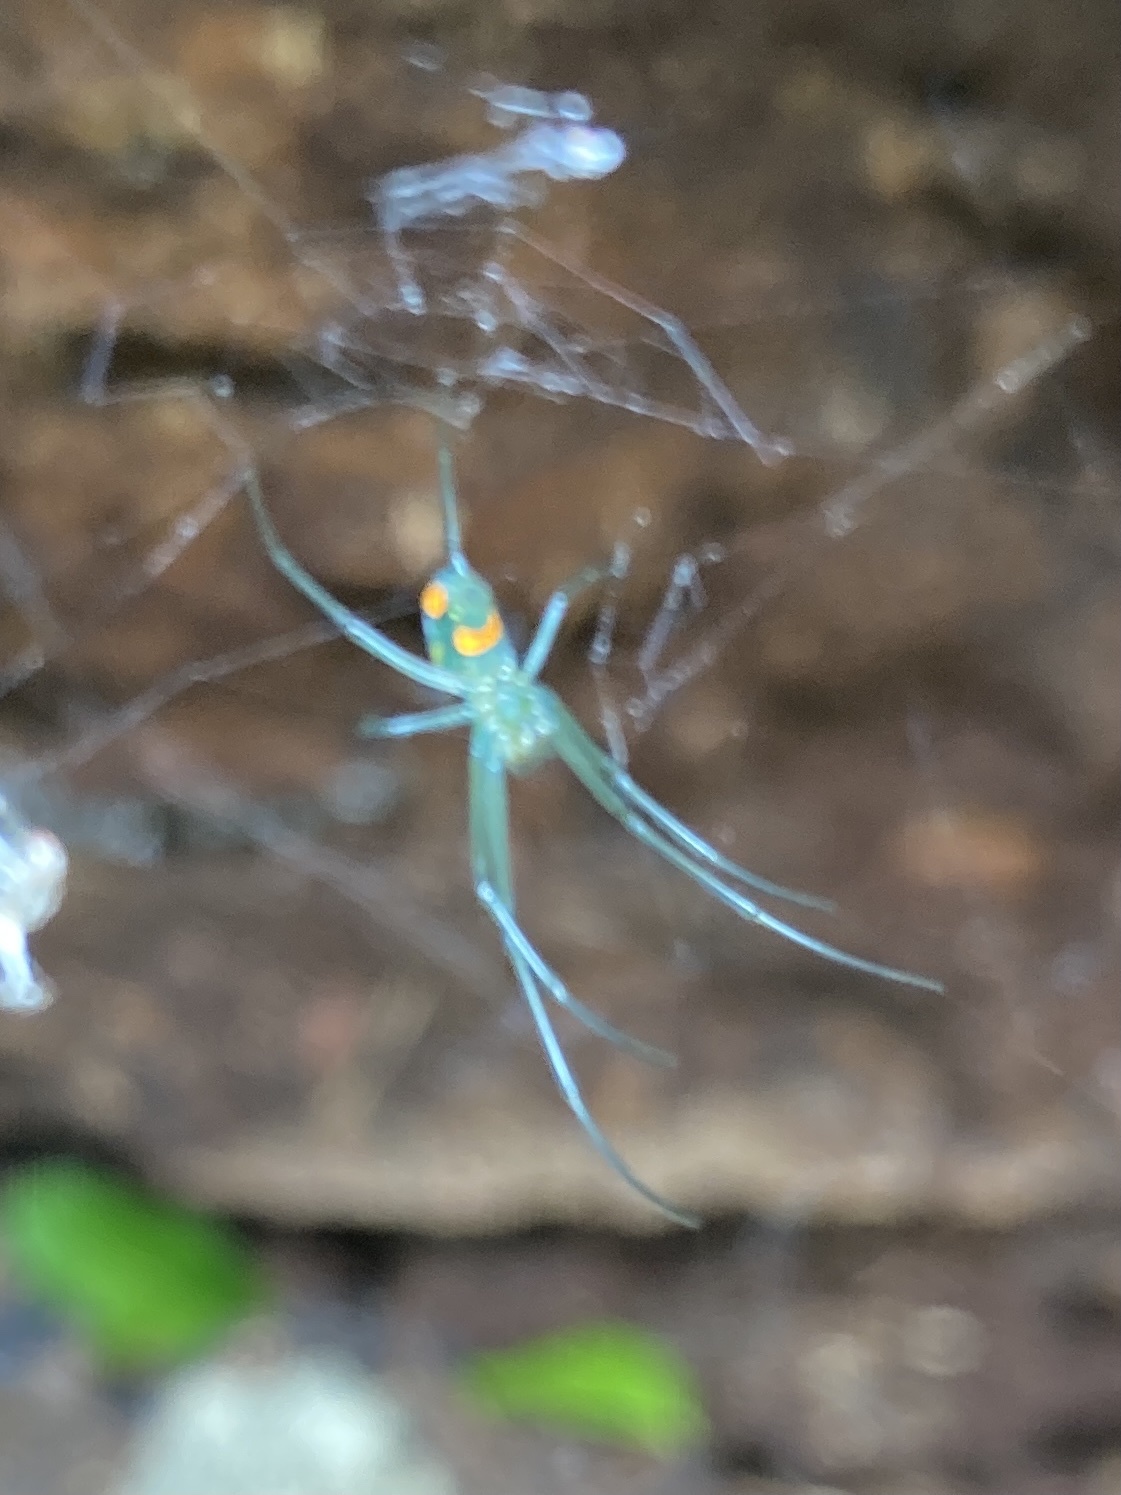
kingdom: Animalia
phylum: Arthropoda
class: Arachnida
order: Araneae
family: Tetragnathidae
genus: Leucauge
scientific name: Leucauge argyrobapta
